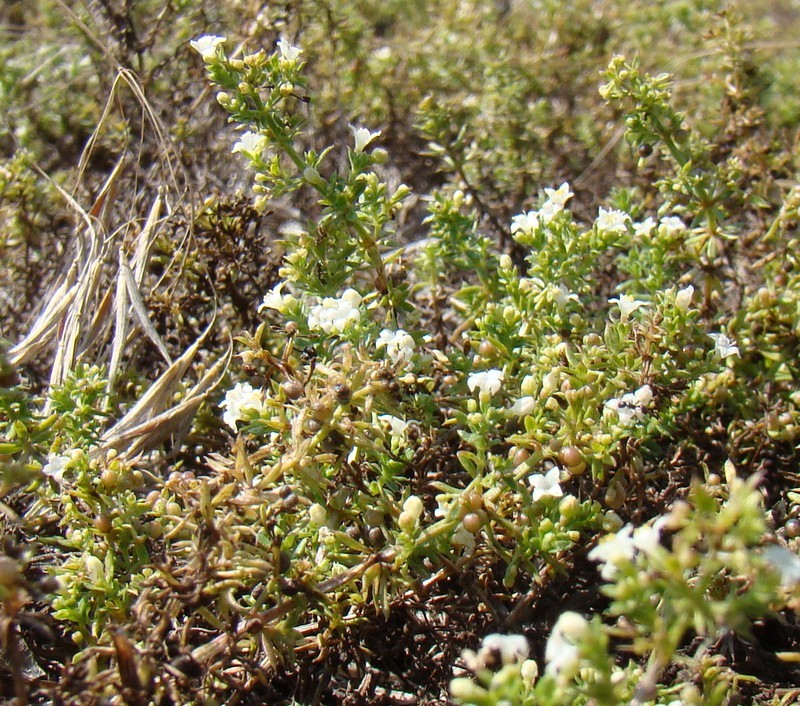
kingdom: Plantae
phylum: Tracheophyta
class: Magnoliopsida
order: Gentianales
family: Rubiaceae
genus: Galium
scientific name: Galium humifusum
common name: Spreading bedstraw
